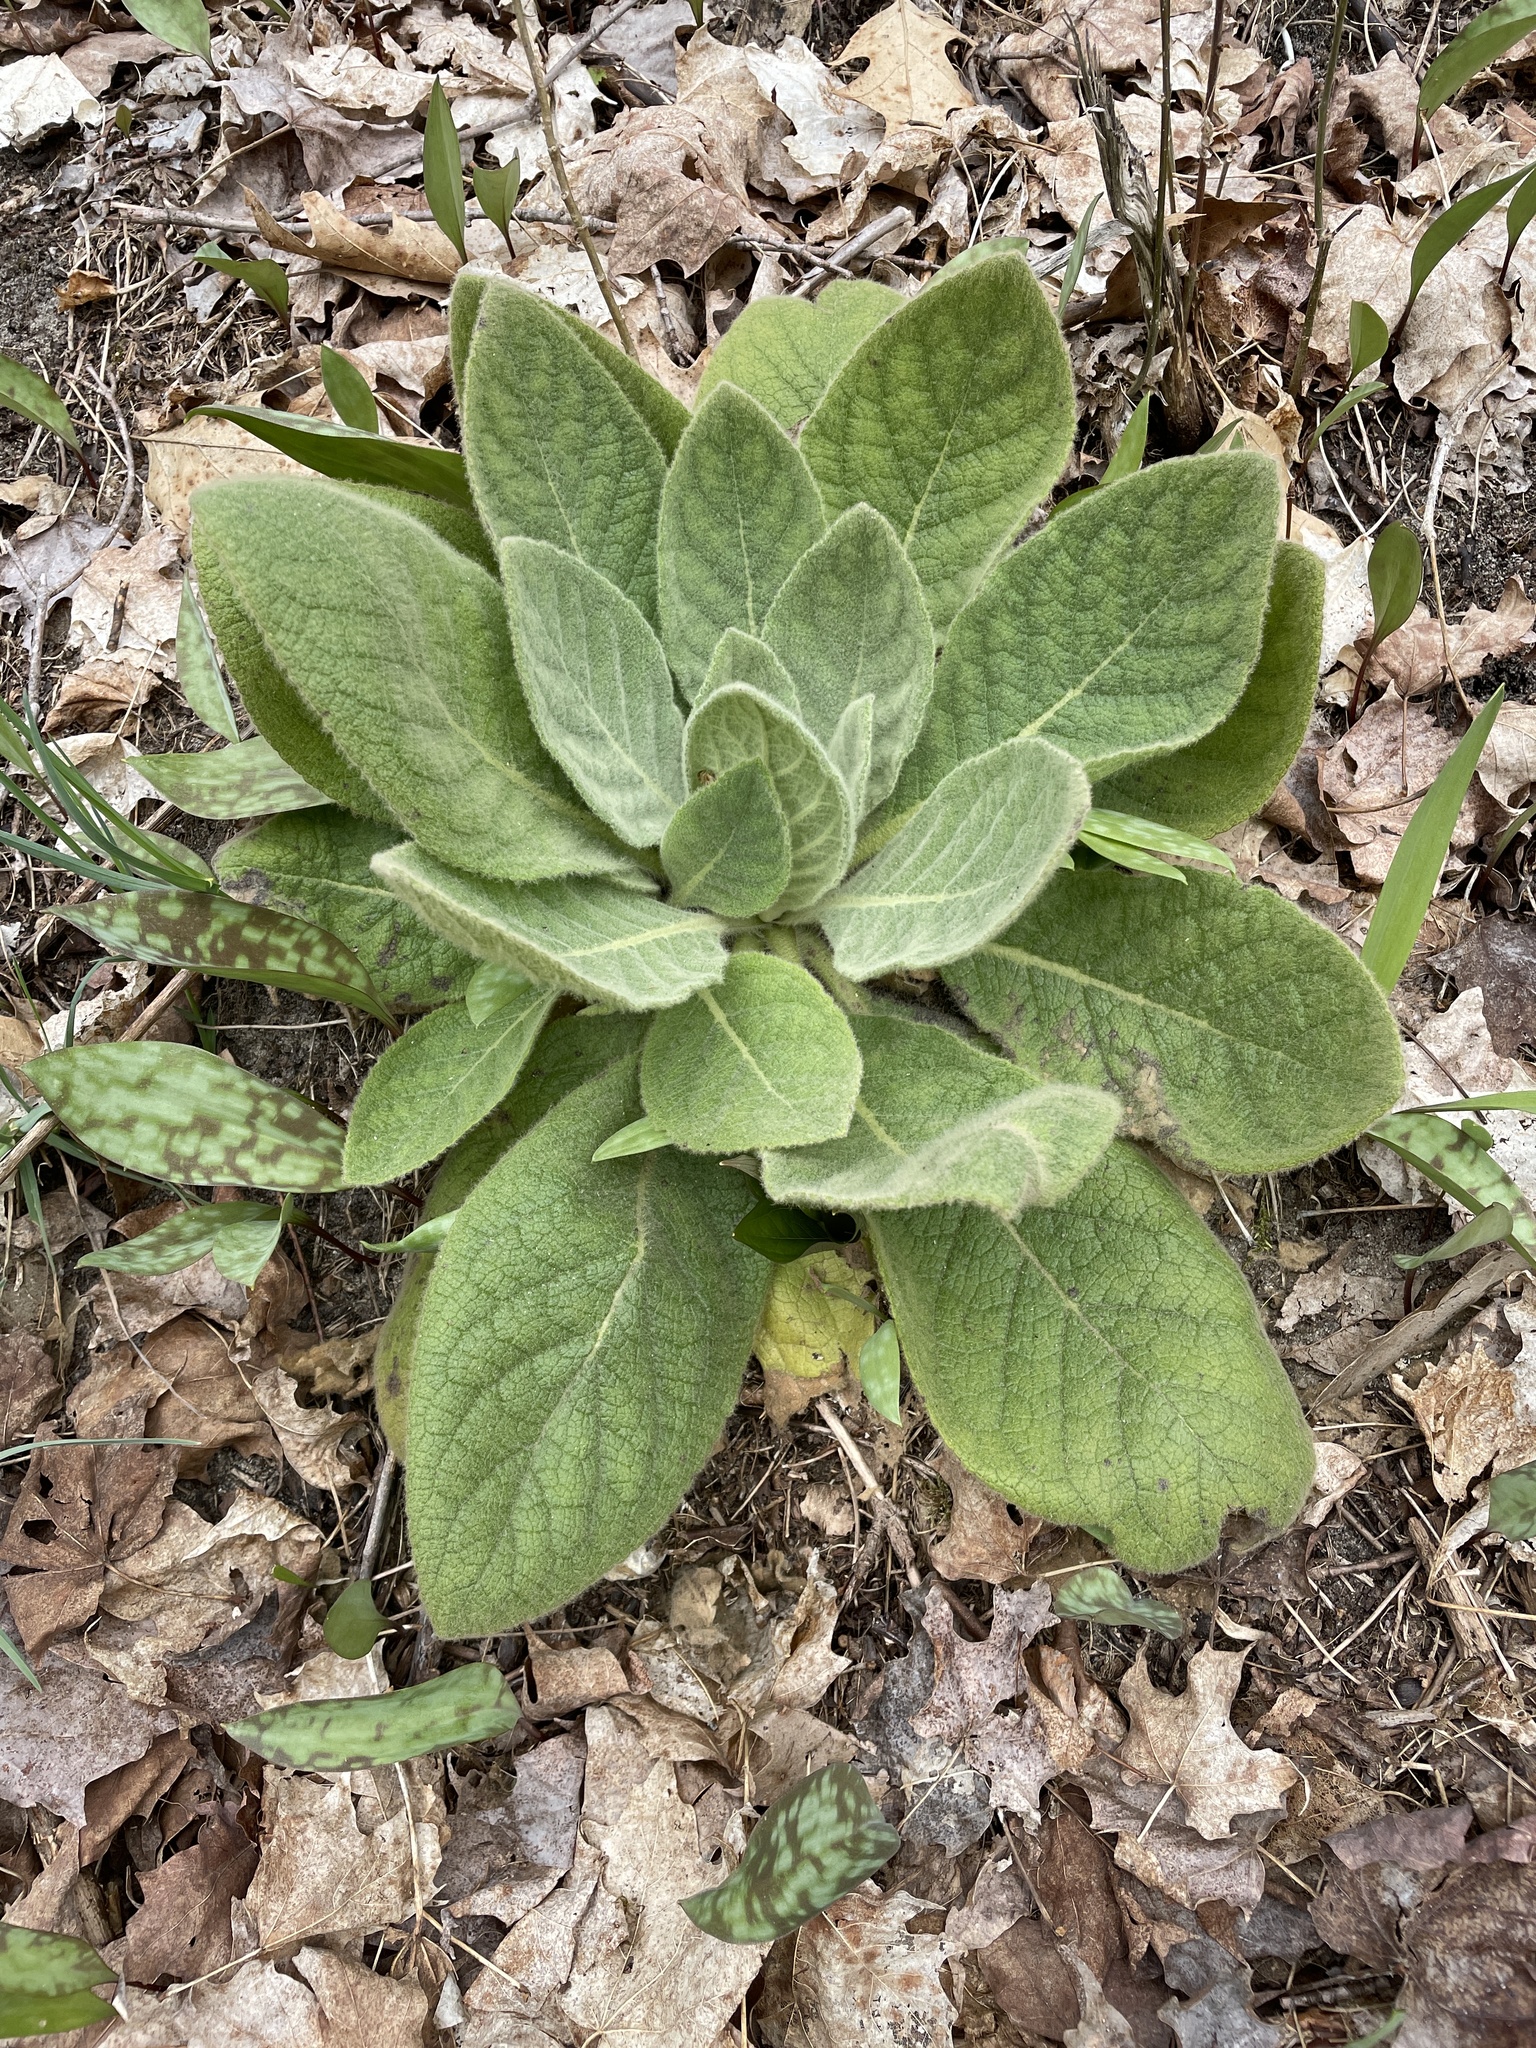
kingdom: Plantae
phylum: Tracheophyta
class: Magnoliopsida
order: Lamiales
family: Scrophulariaceae
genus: Verbascum
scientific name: Verbascum thapsus
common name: Common mullein
